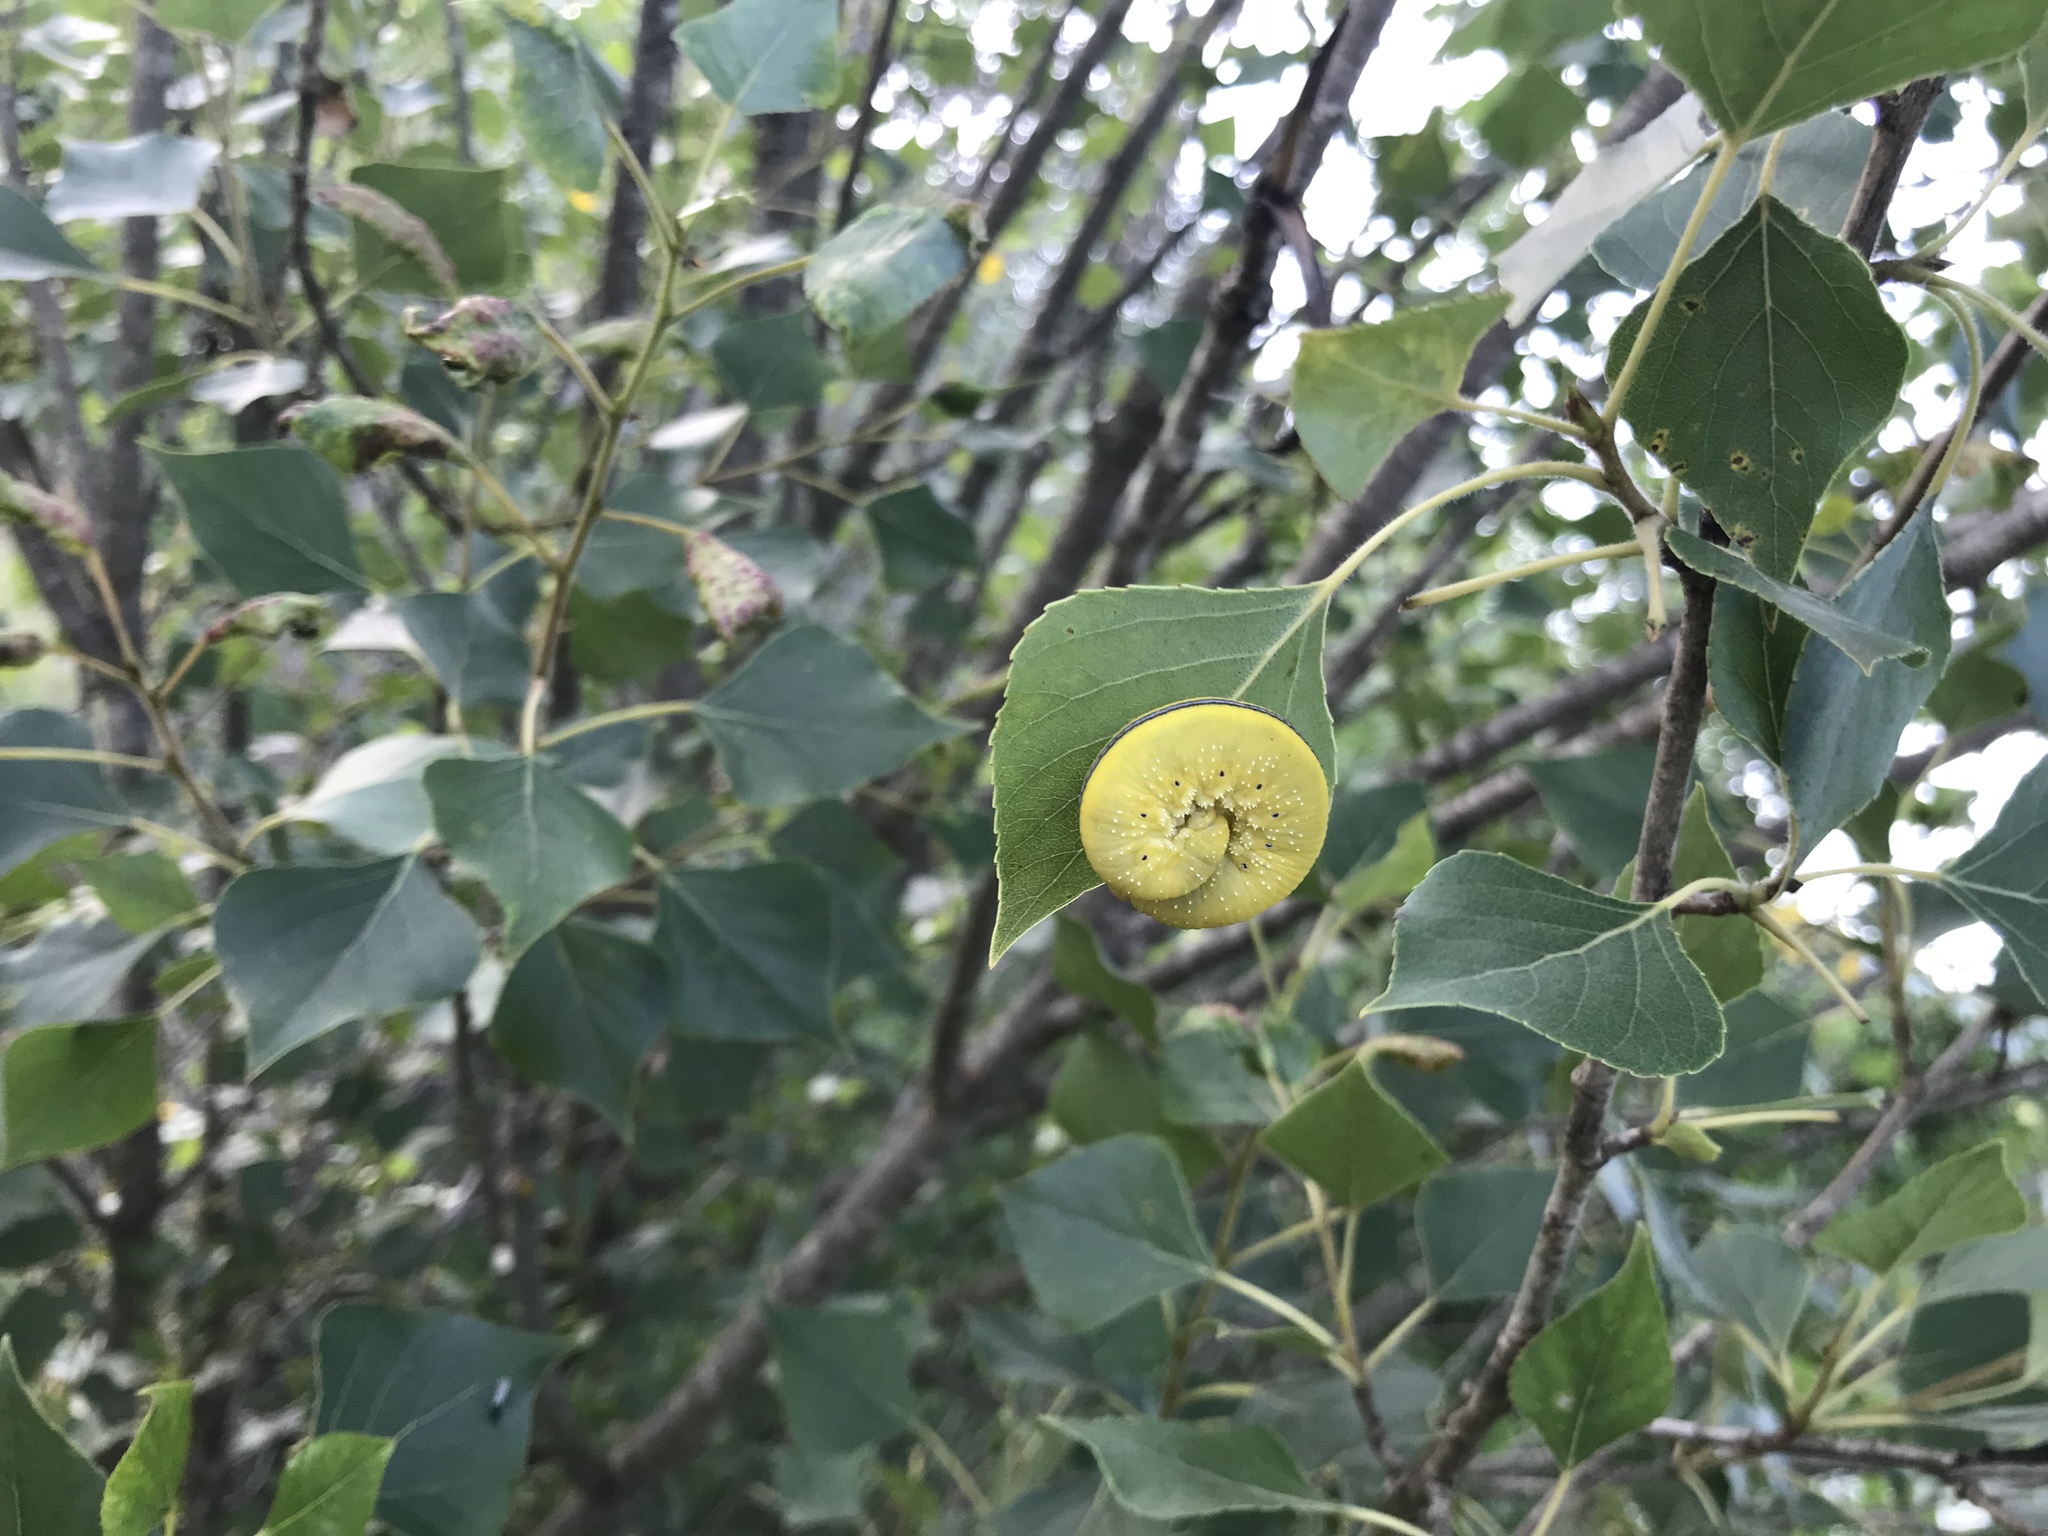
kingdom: Animalia
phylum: Arthropoda
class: Insecta
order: Hymenoptera
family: Cimbicidae
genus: Cimbex
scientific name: Cimbex femoratus
